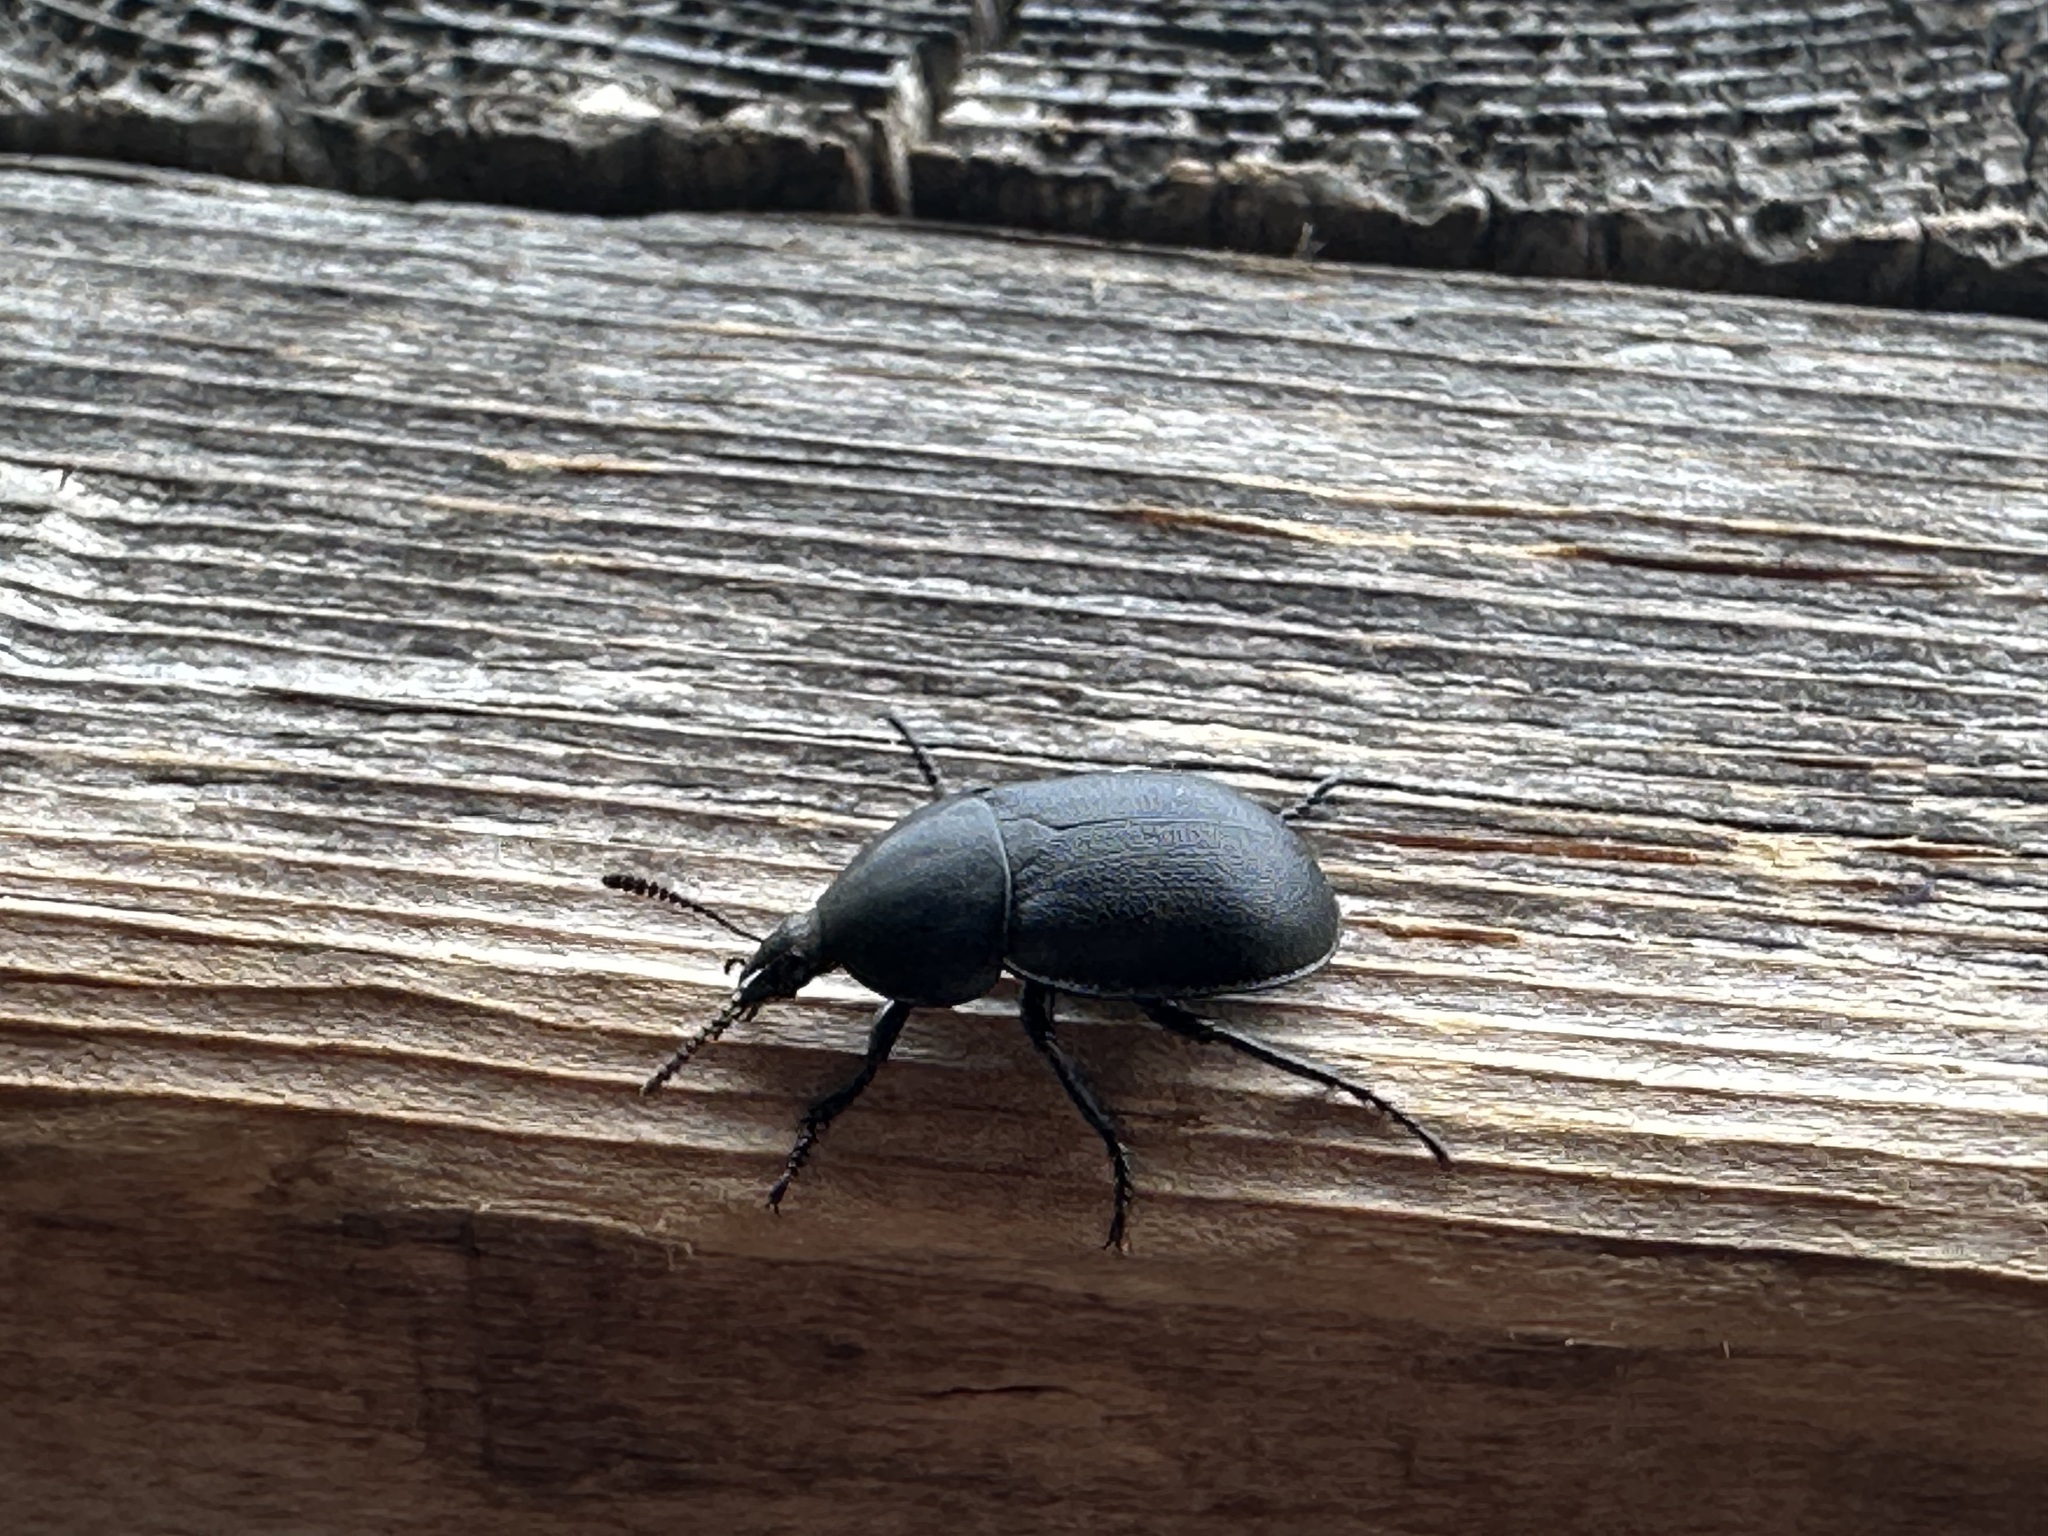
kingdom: Animalia
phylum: Arthropoda
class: Insecta
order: Coleoptera
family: Staphylinidae
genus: Silpha
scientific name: Silpha laevigata
